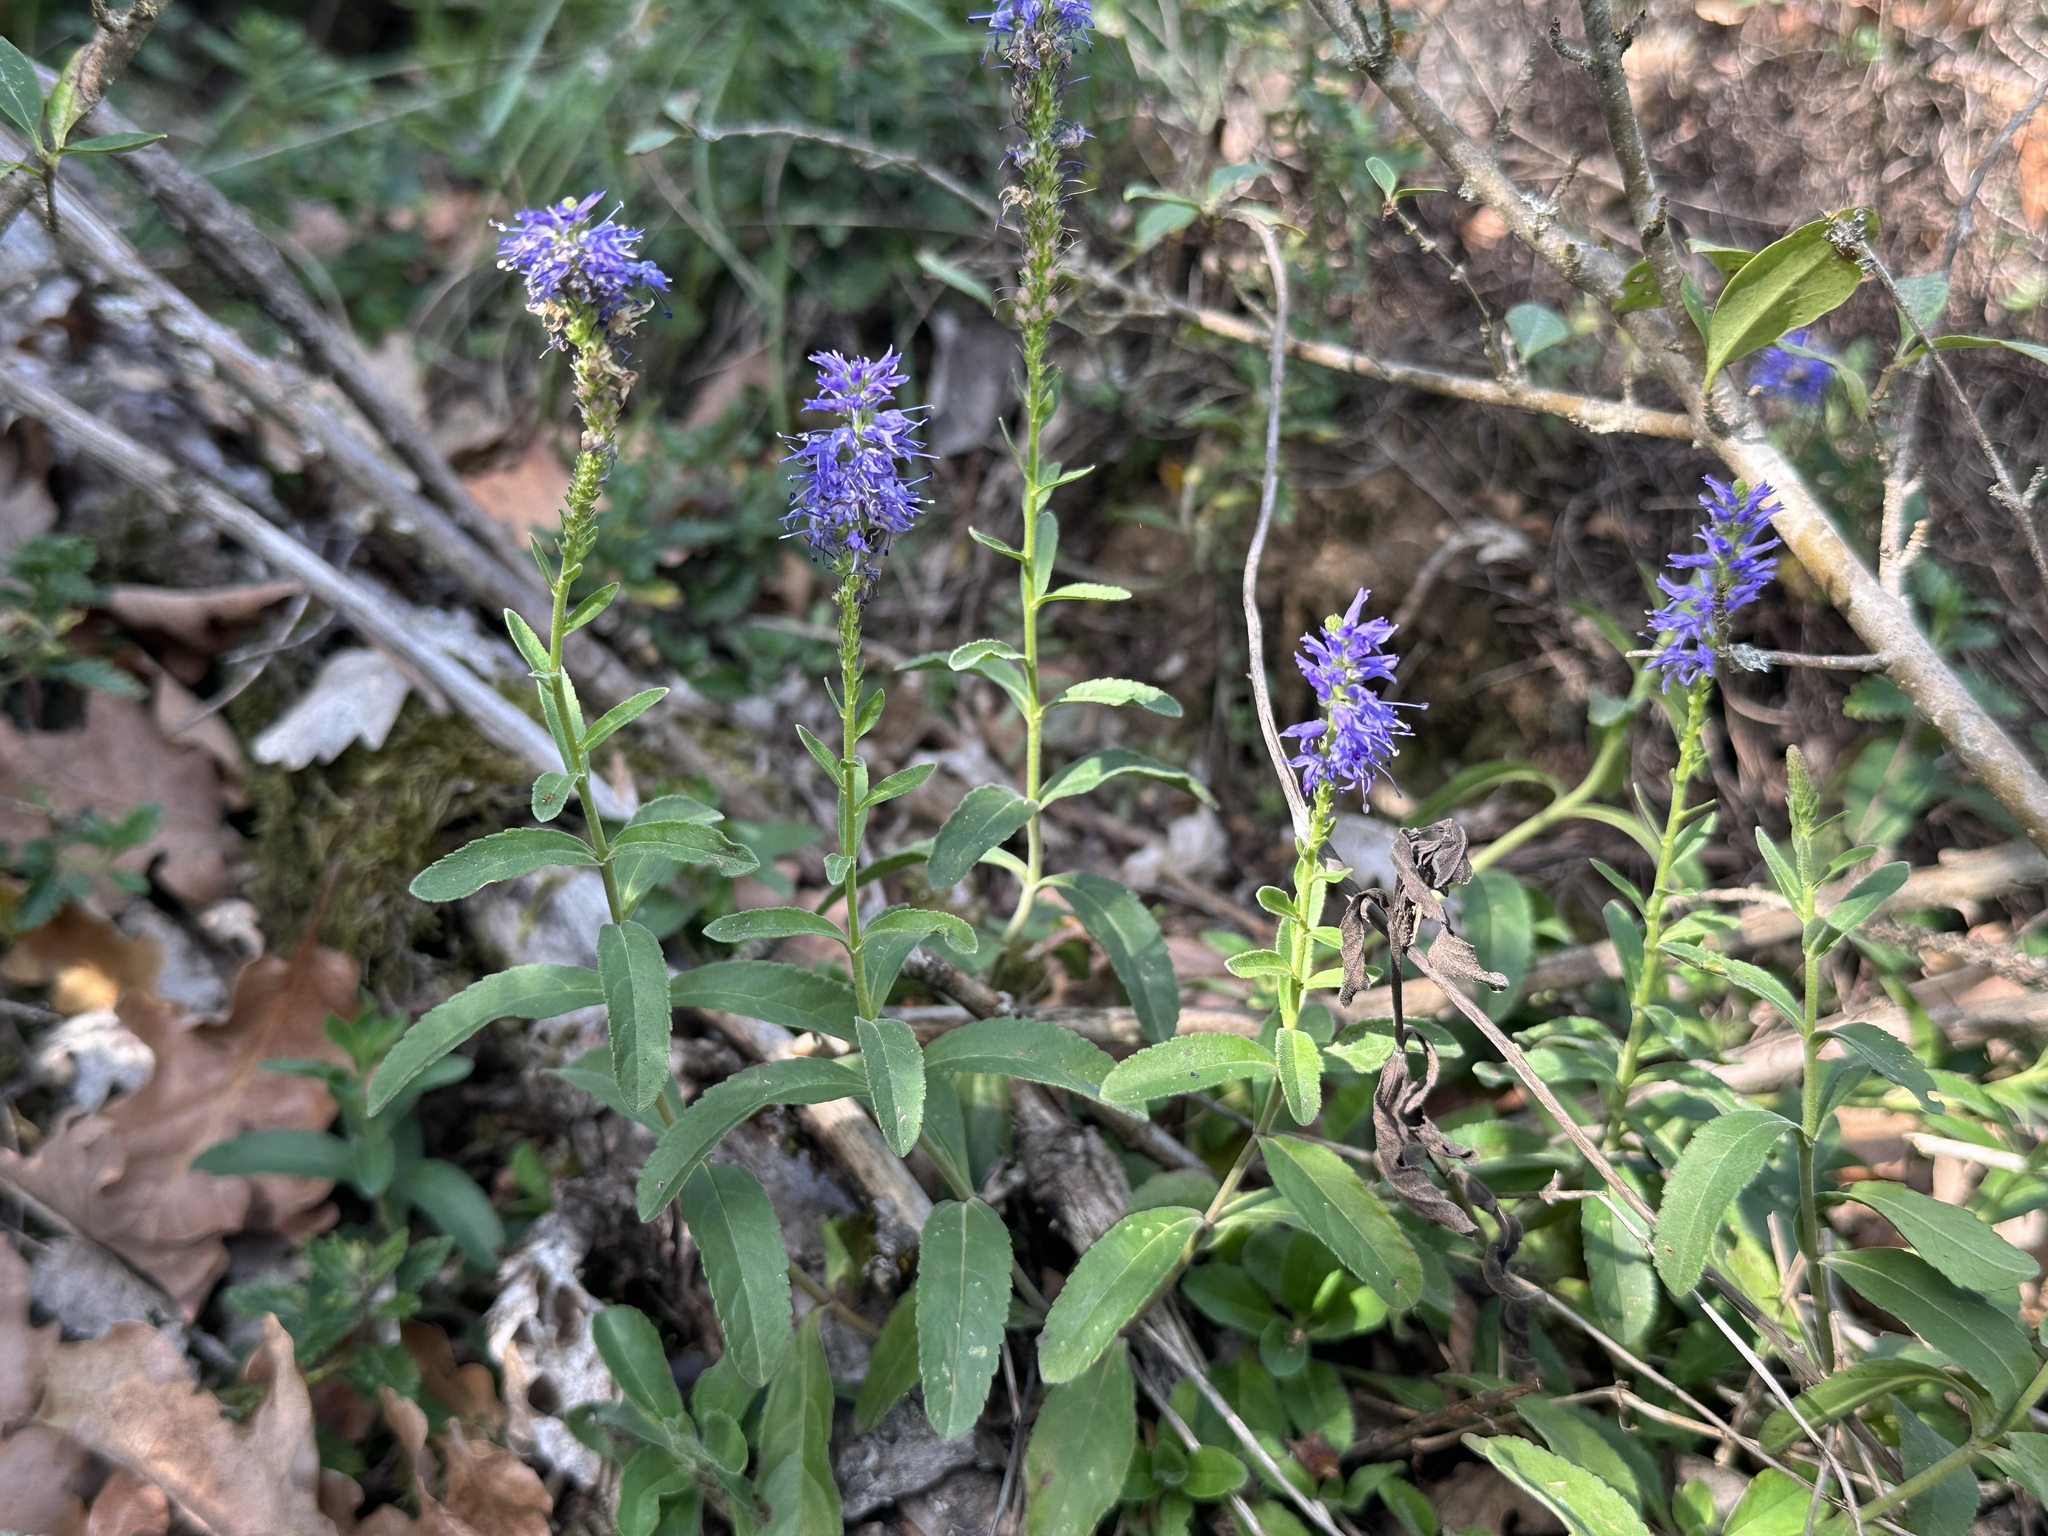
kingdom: Plantae
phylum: Tracheophyta
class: Magnoliopsida
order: Lamiales
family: Plantaginaceae
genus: Veronica
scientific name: Veronica spicata
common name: Spiked speedwell
